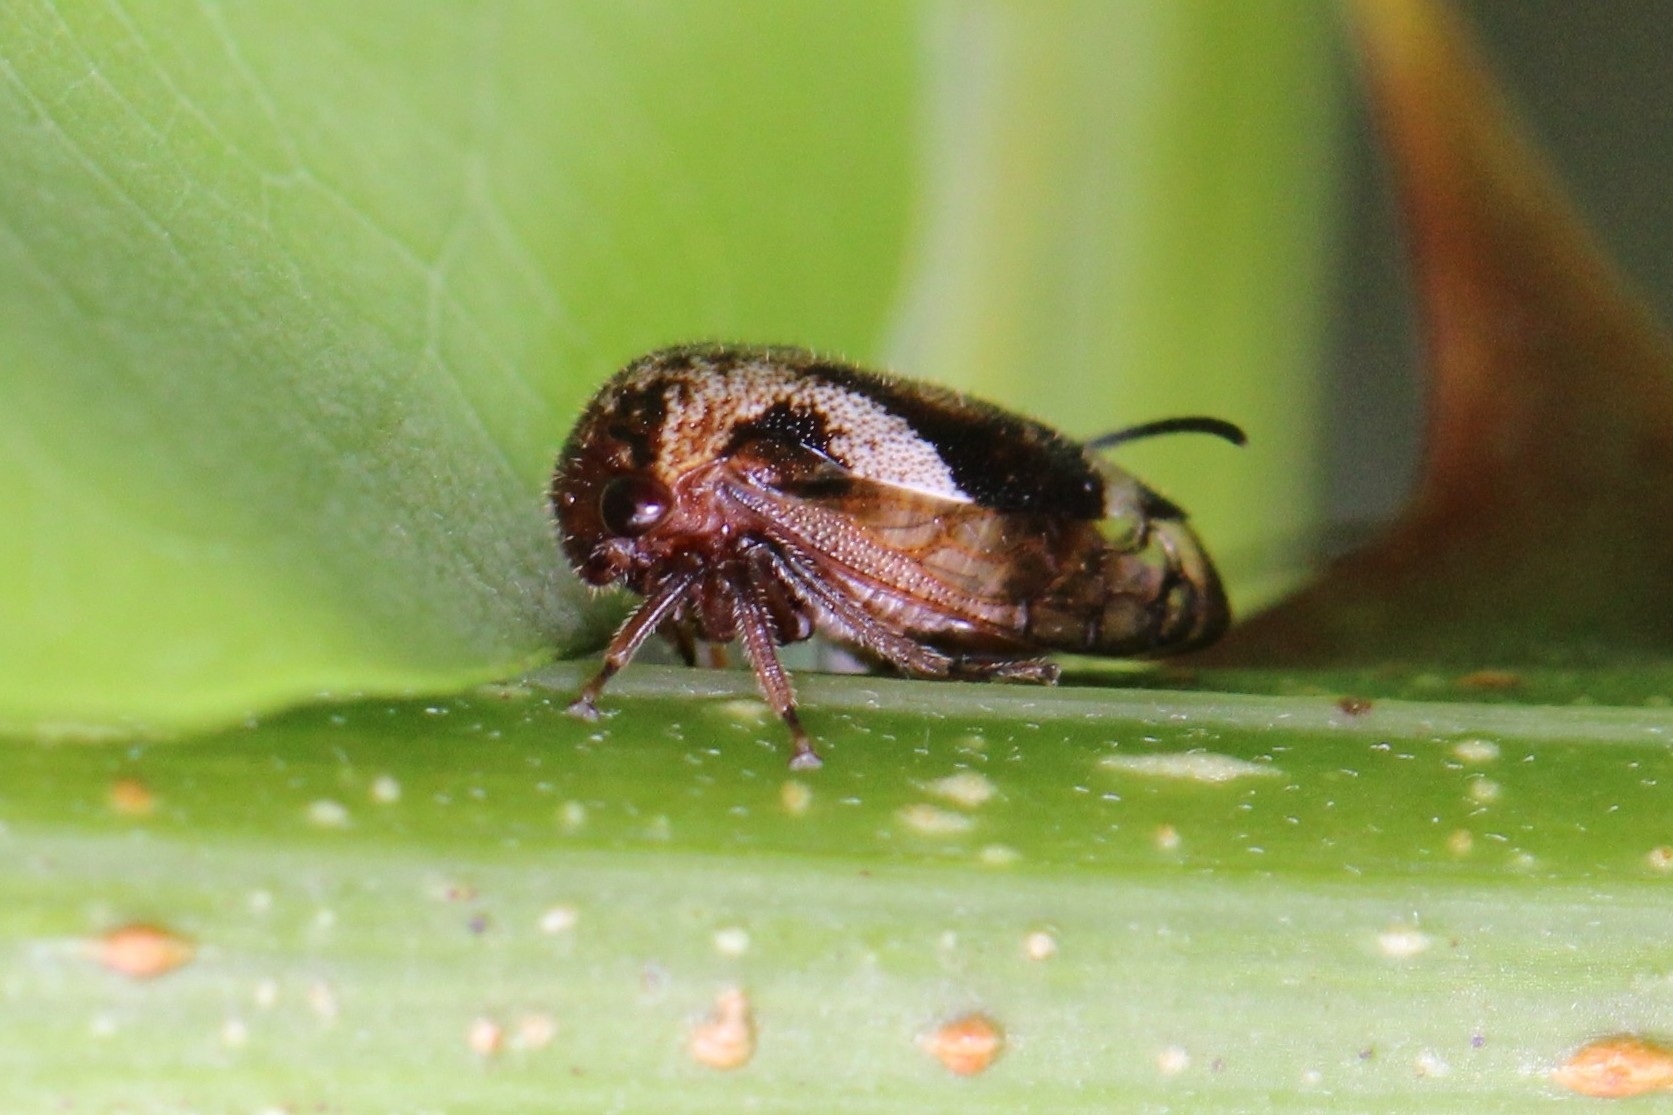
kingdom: Animalia
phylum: Arthropoda
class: Insecta
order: Hemiptera
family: Membracidae
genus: Vanduzea
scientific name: Vanduzea arquata
